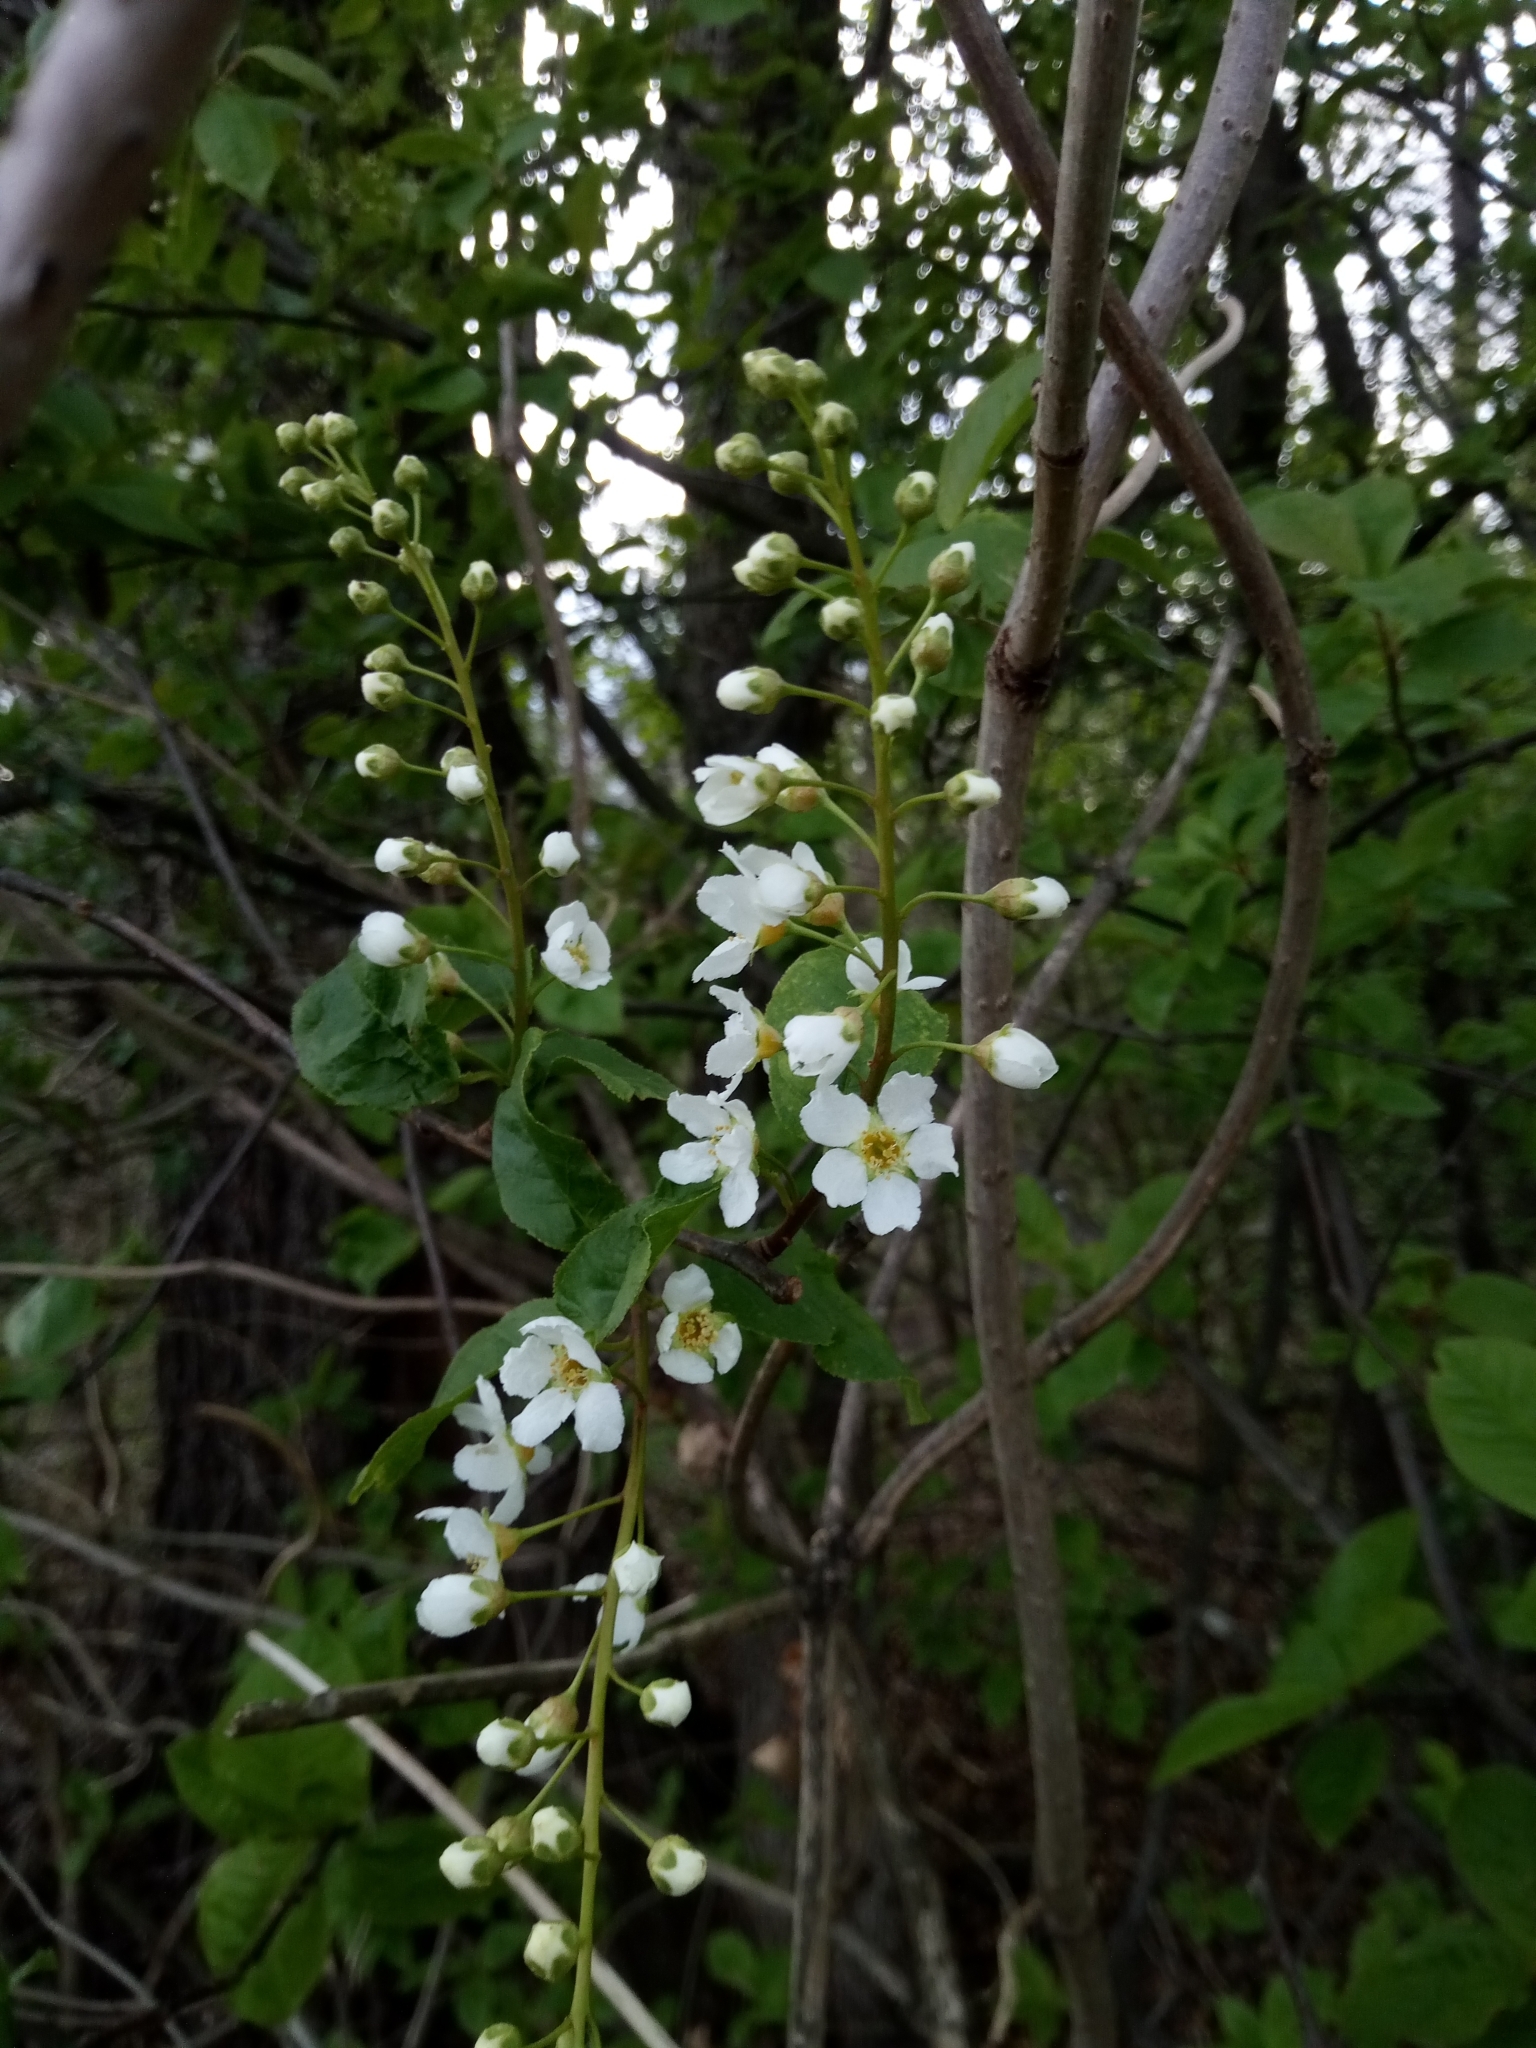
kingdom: Plantae
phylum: Tracheophyta
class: Magnoliopsida
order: Rosales
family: Rosaceae
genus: Prunus
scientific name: Prunus padus
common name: Bird cherry
